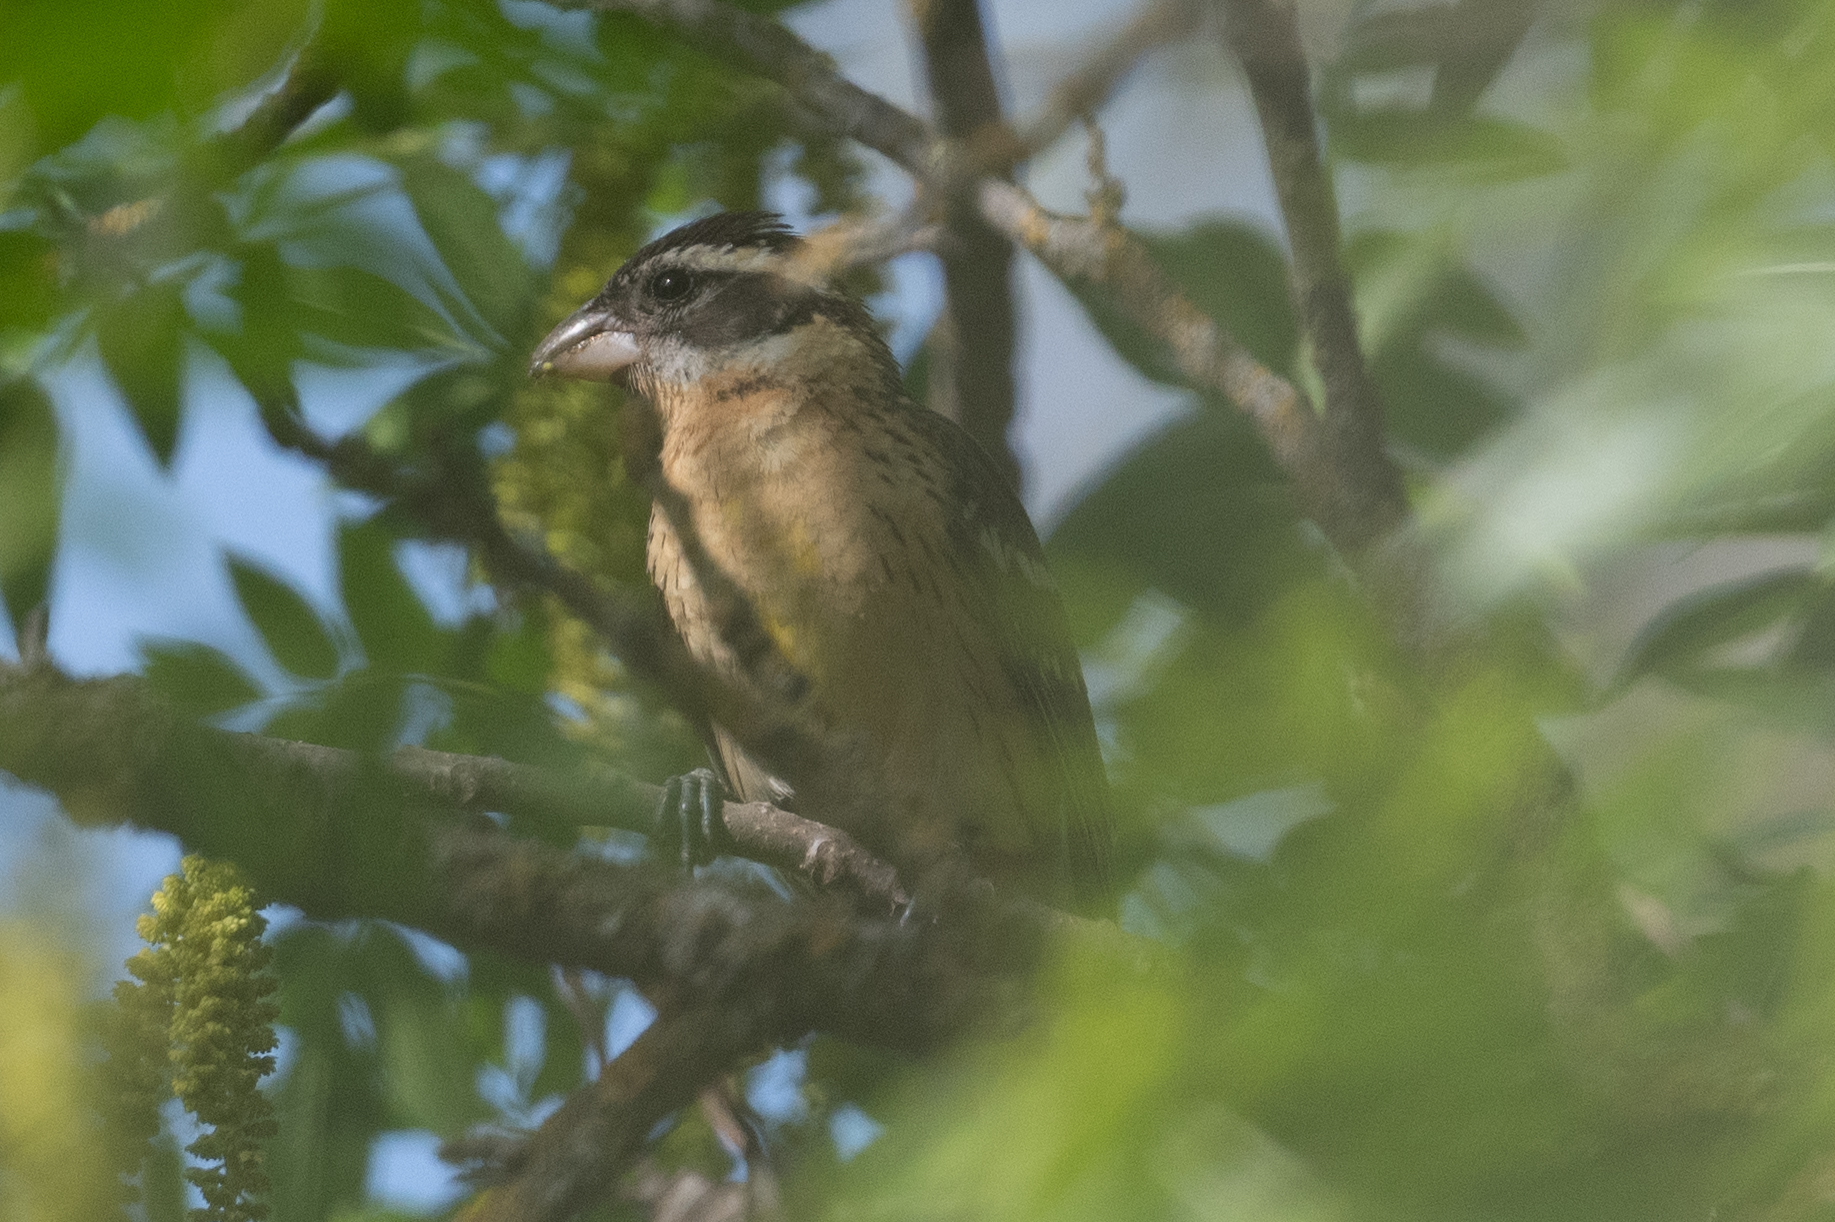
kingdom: Animalia
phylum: Chordata
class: Aves
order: Passeriformes
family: Cardinalidae
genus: Pheucticus
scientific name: Pheucticus melanocephalus
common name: Black-headed grosbeak
